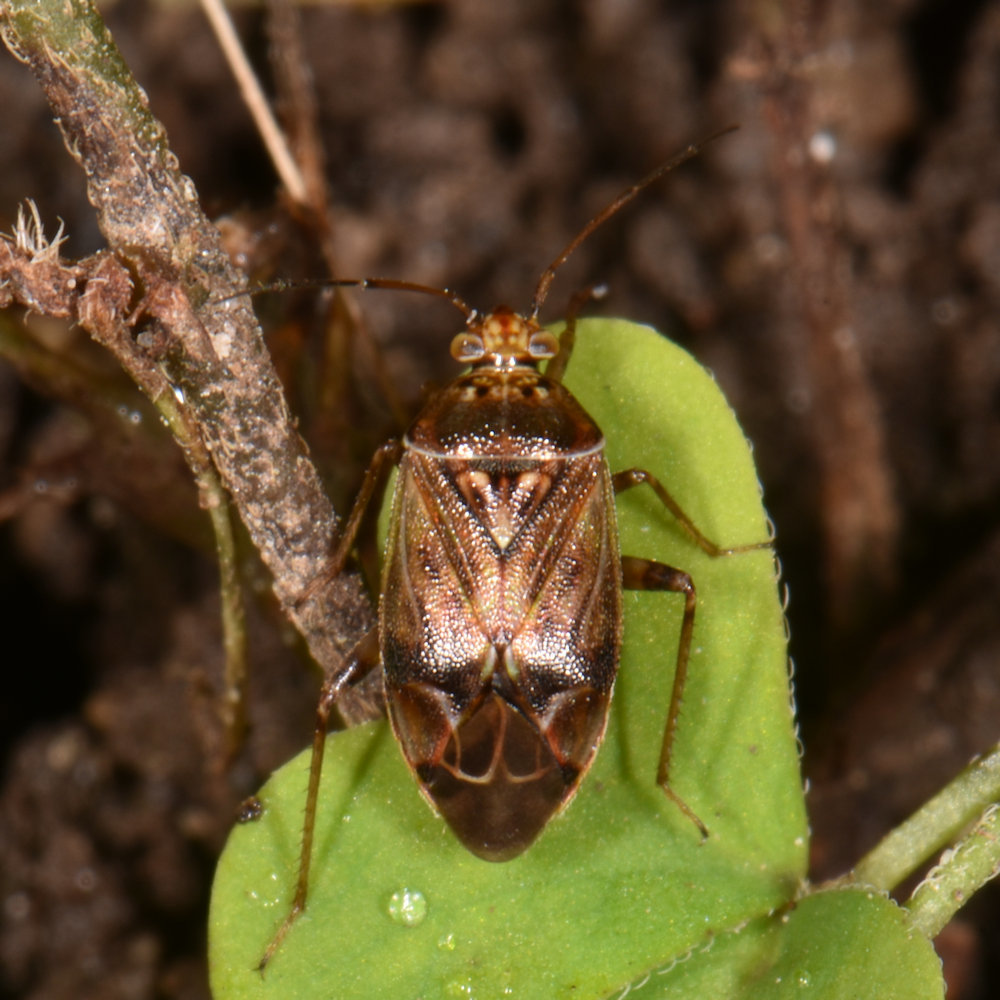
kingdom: Animalia
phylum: Arthropoda
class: Insecta
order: Hemiptera
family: Miridae
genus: Lygus
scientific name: Lygus lineolaris
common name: North american tarnished plant bug
